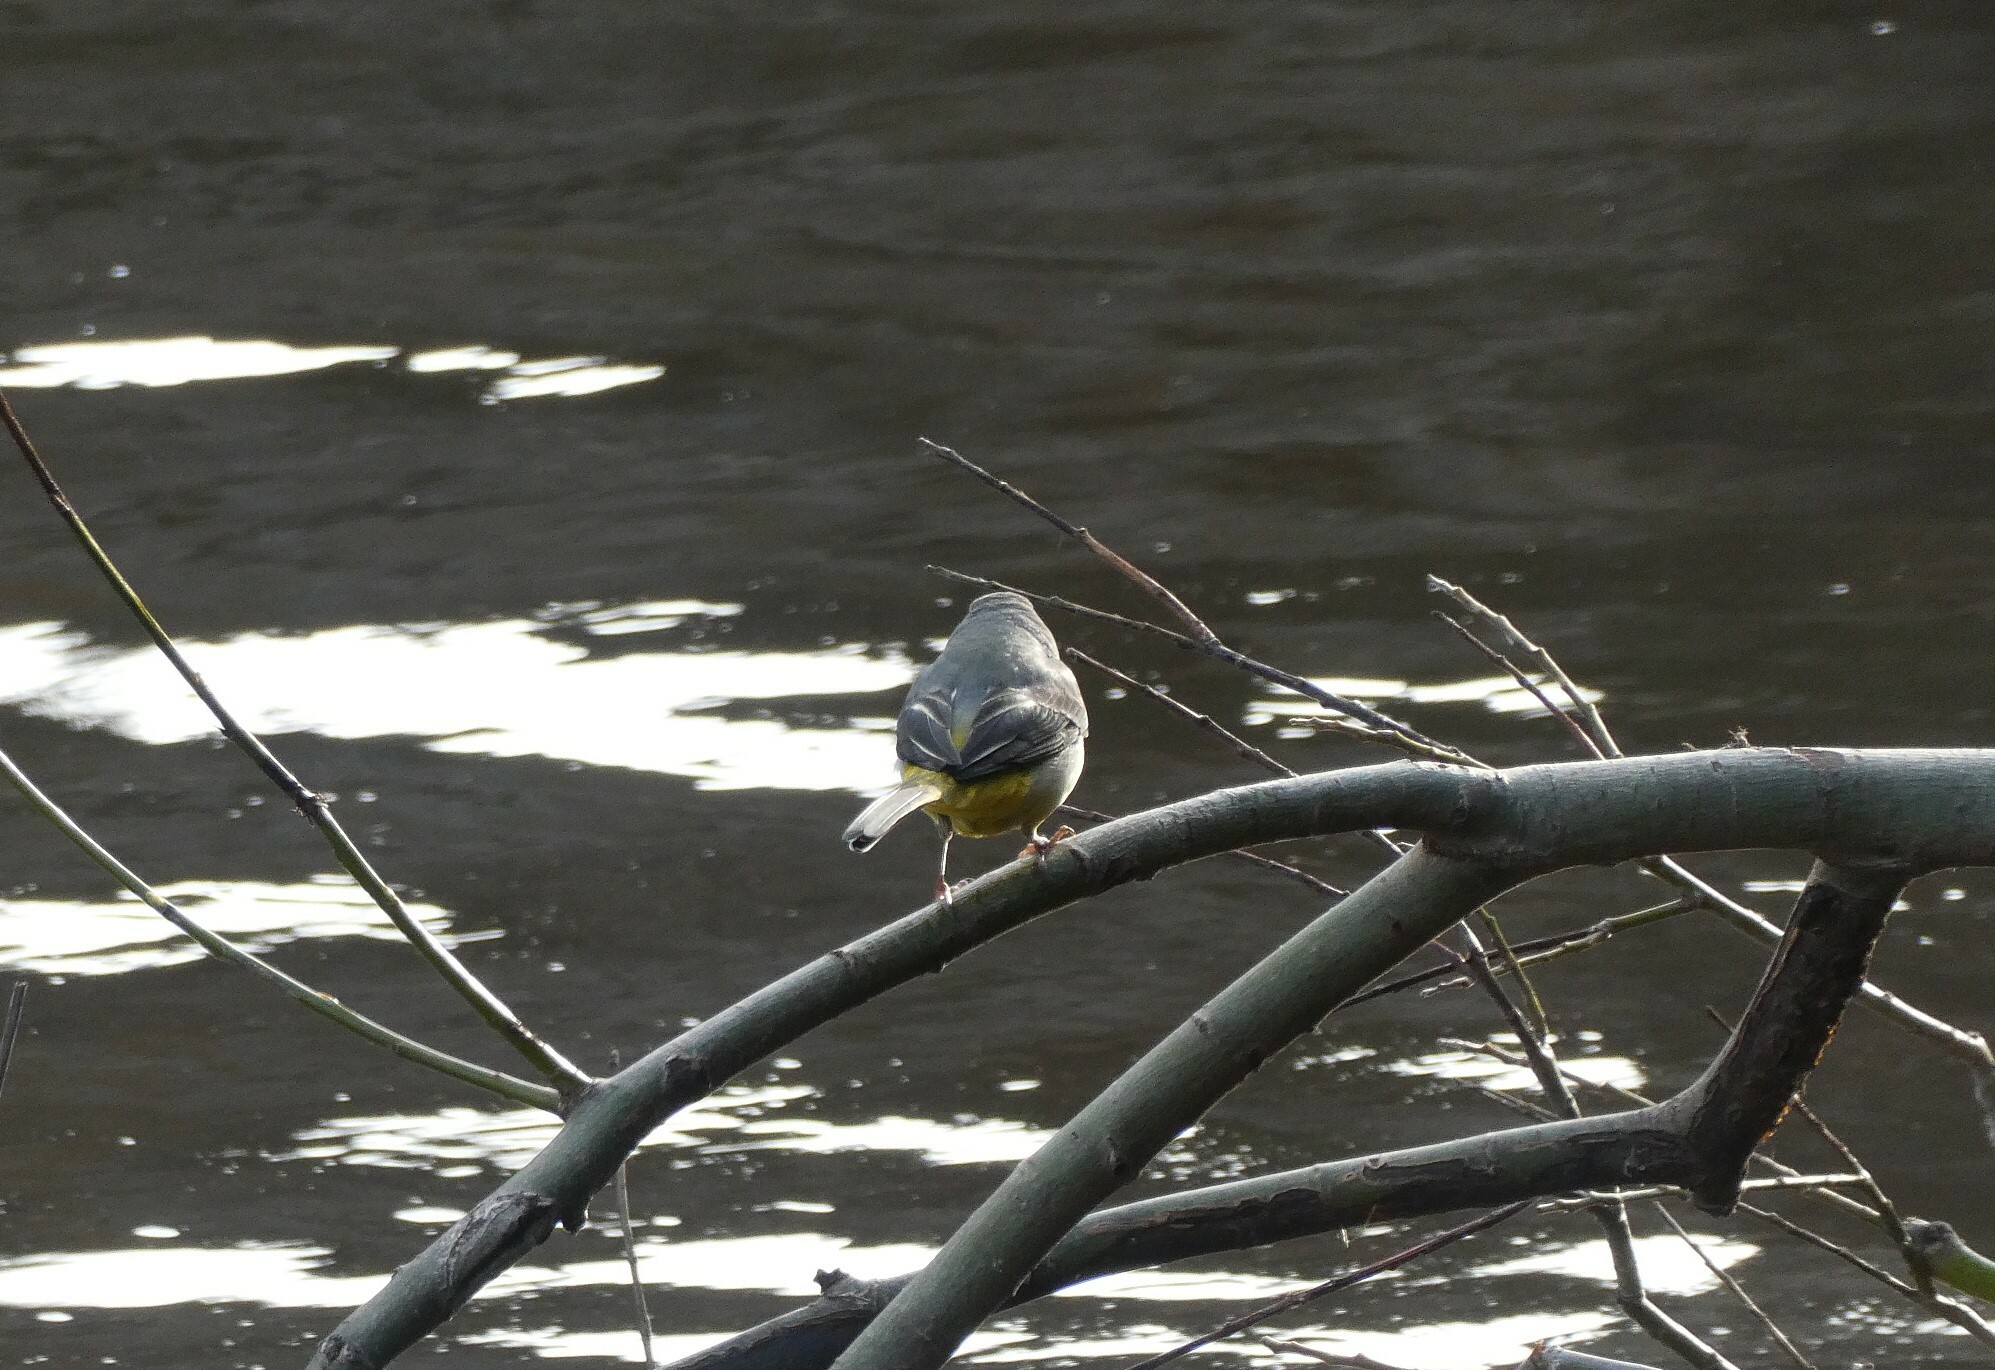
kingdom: Animalia
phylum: Chordata
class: Aves
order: Passeriformes
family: Motacillidae
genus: Motacilla
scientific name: Motacilla cinerea
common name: Grey wagtail
